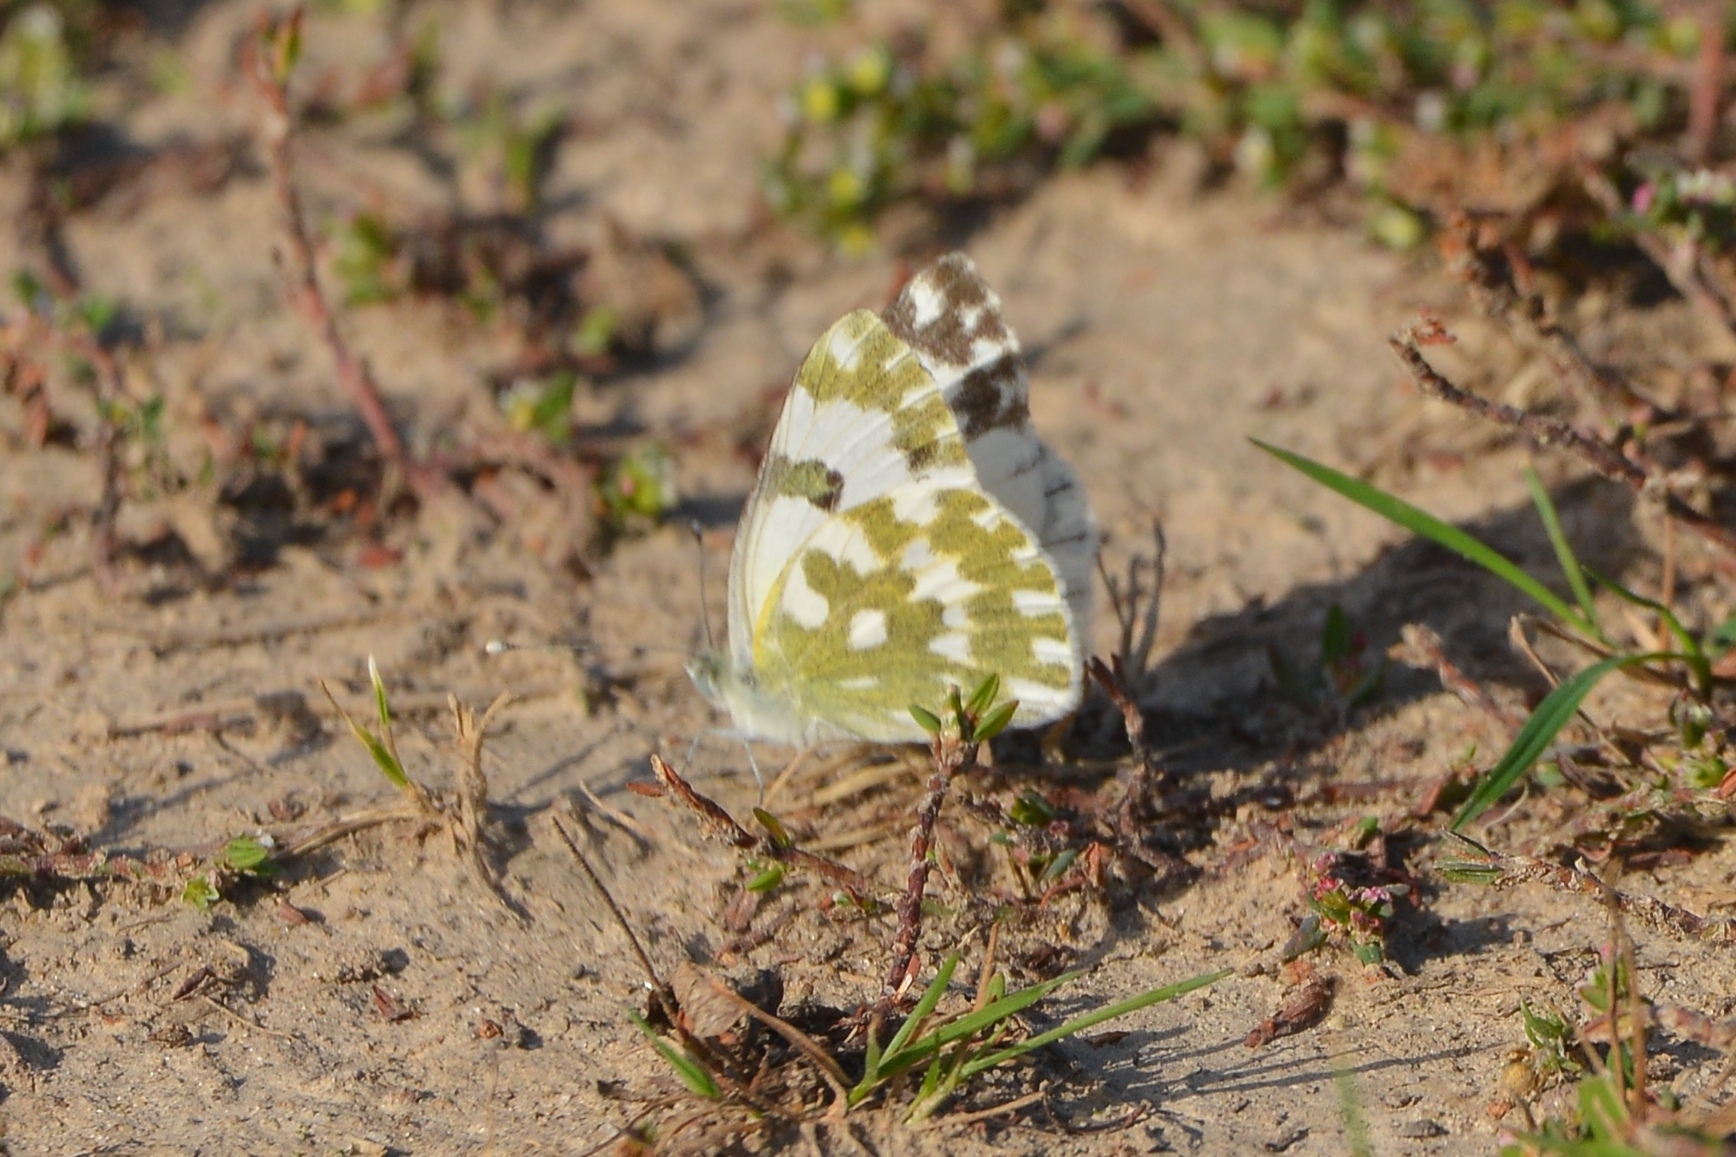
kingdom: Animalia
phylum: Arthropoda
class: Insecta
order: Lepidoptera
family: Pieridae
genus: Pontia
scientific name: Pontia edusa
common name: Eastern bath white
